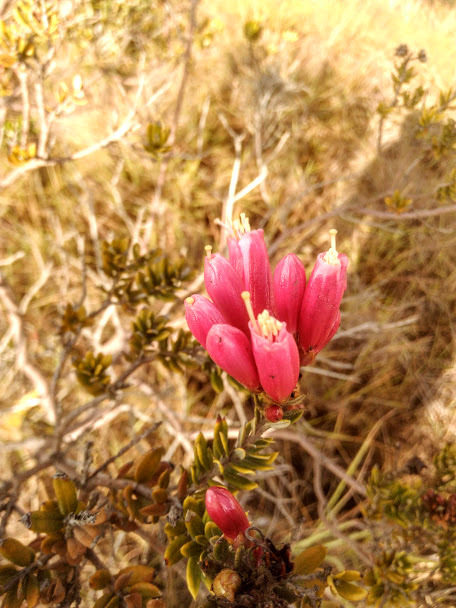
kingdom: Plantae
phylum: Tracheophyta
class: Magnoliopsida
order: Ericales
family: Ericaceae
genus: Bejaria
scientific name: Bejaria resinosa
